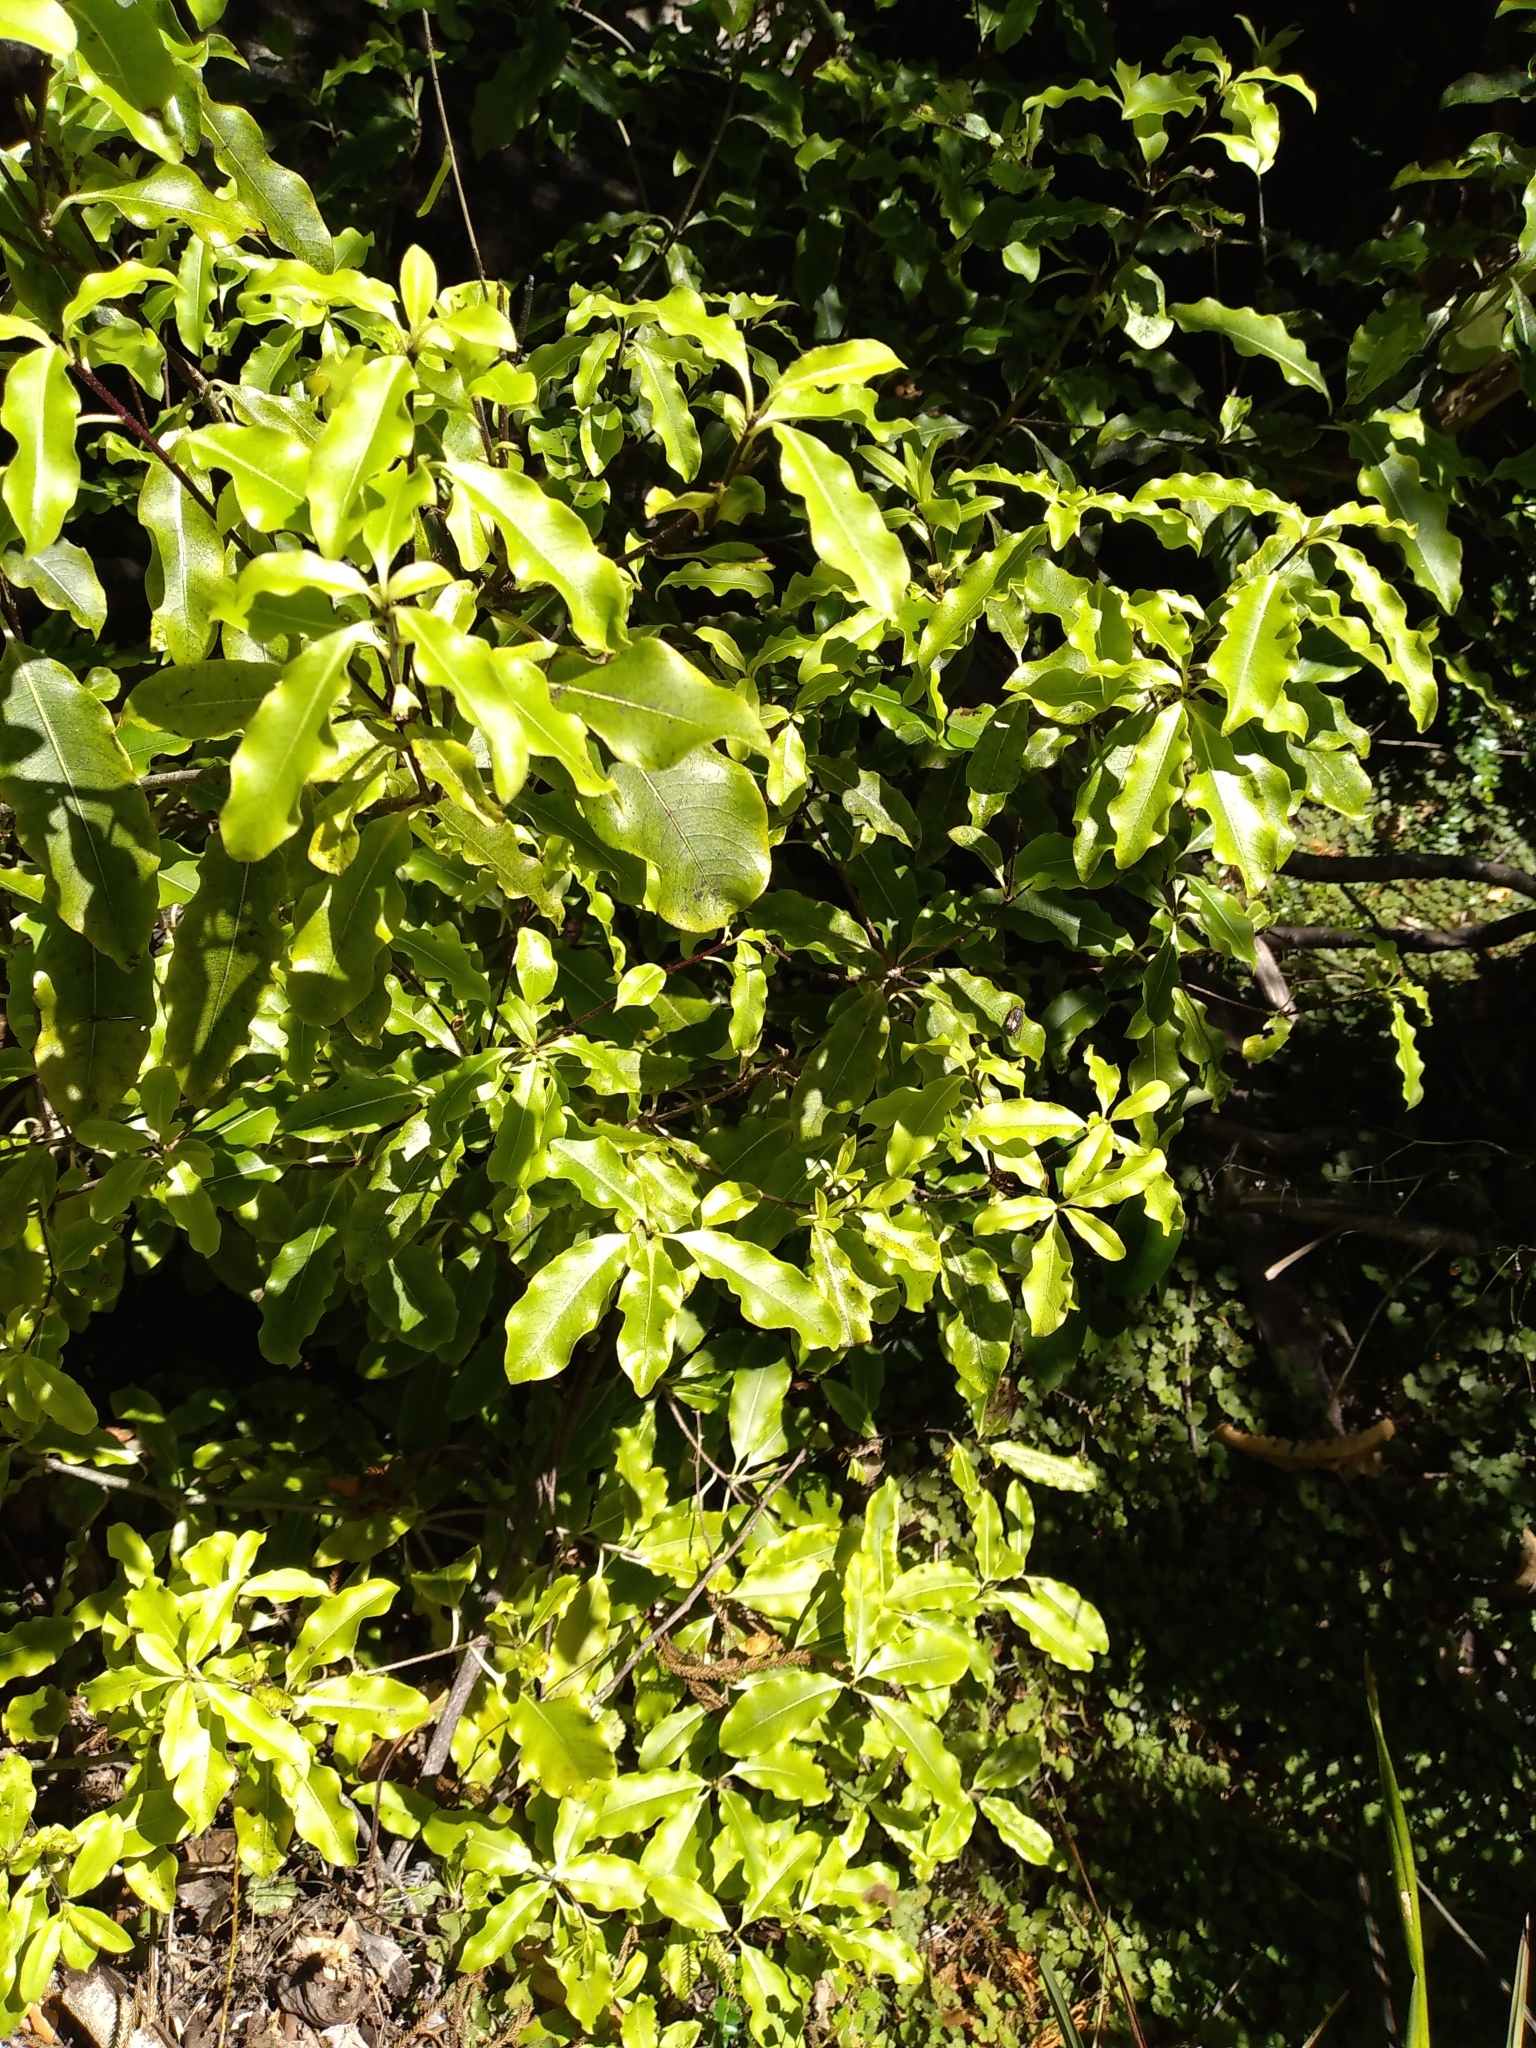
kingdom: Plantae
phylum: Tracheophyta
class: Magnoliopsida
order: Apiales
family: Pittosporaceae
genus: Pittosporum
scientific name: Pittosporum eugenioides
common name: Lemonwood
